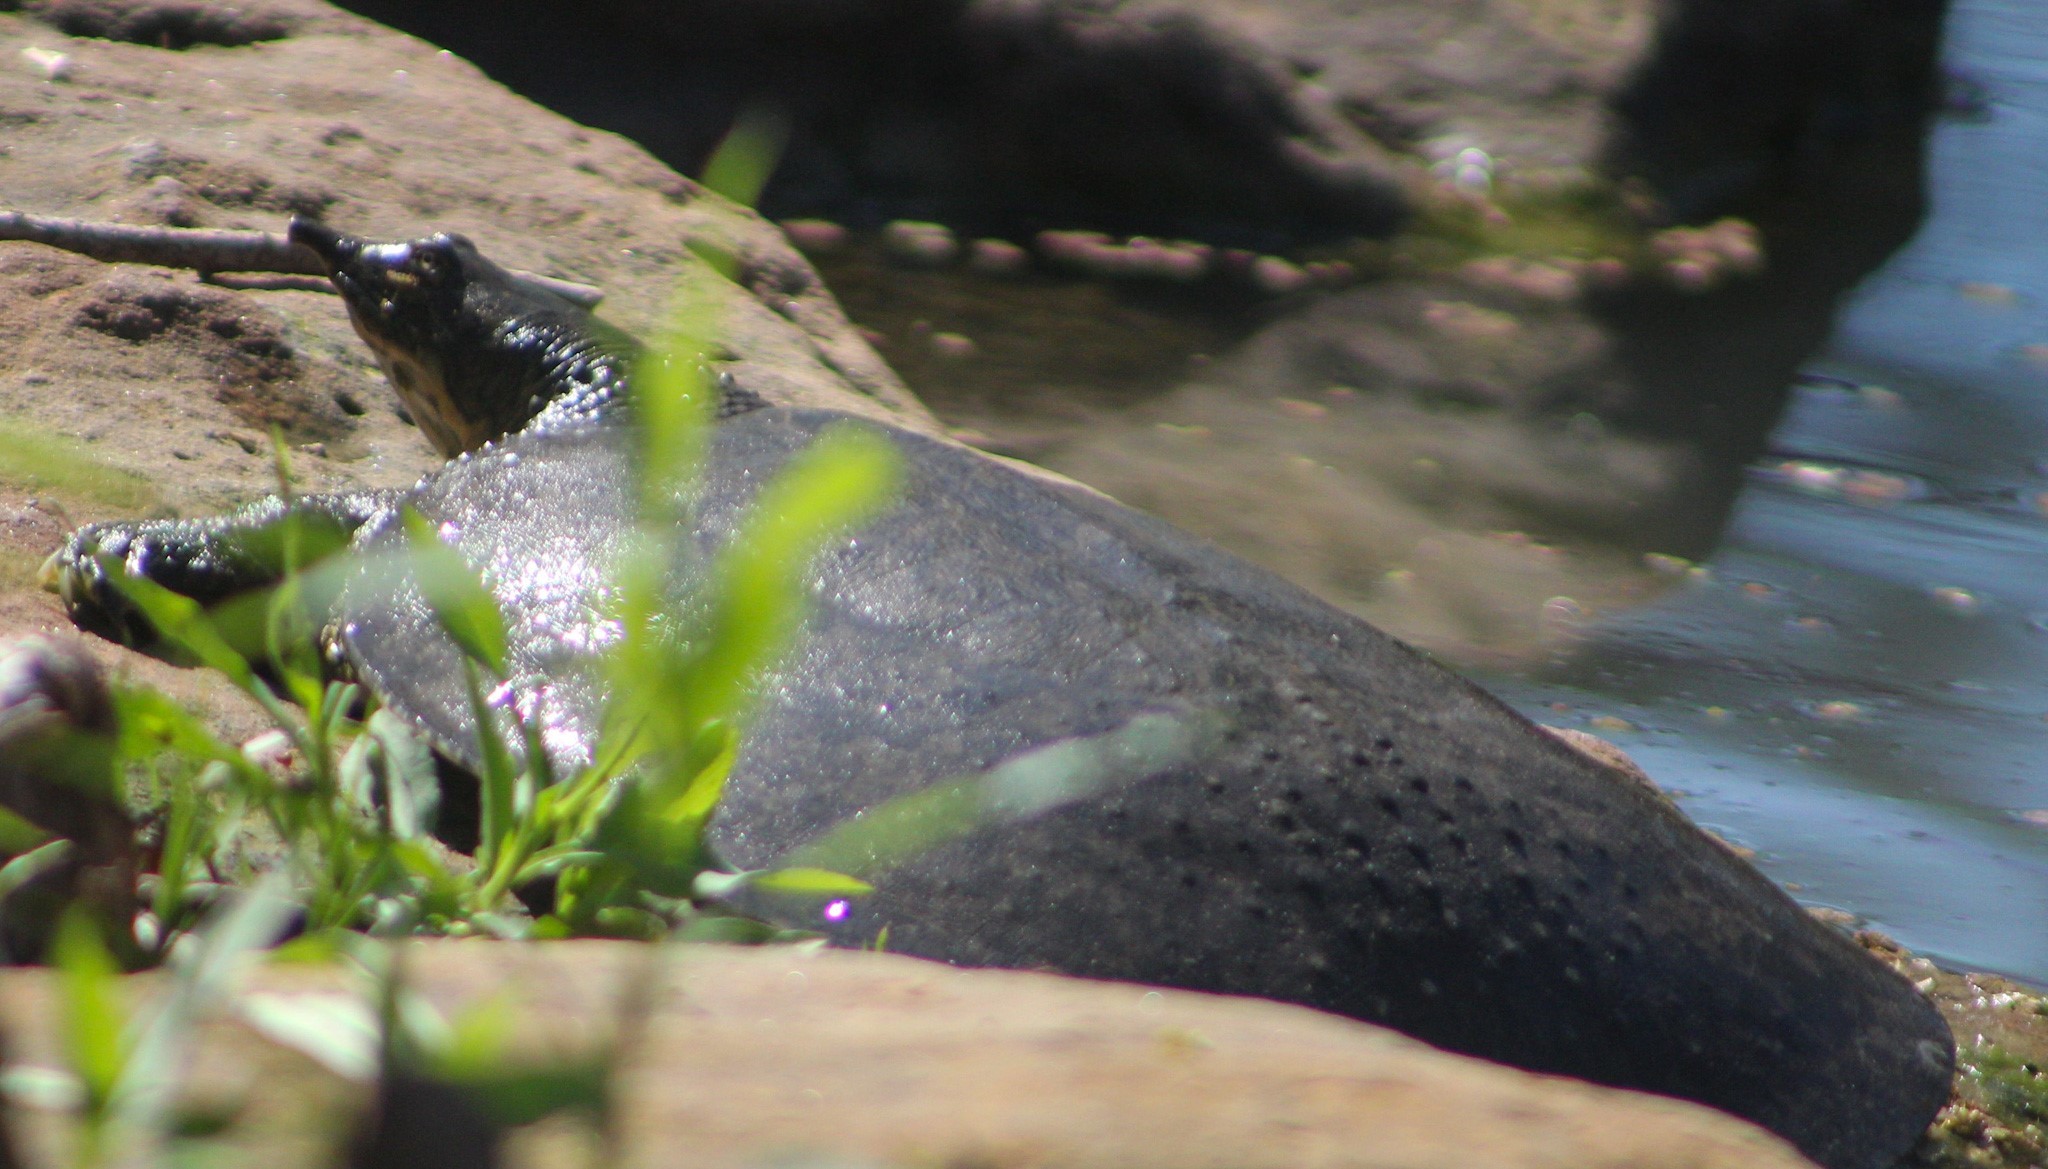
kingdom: Animalia
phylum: Chordata
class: Testudines
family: Trionychidae
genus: Apalone
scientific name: Apalone spinifera
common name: Spiny softshell turtle
